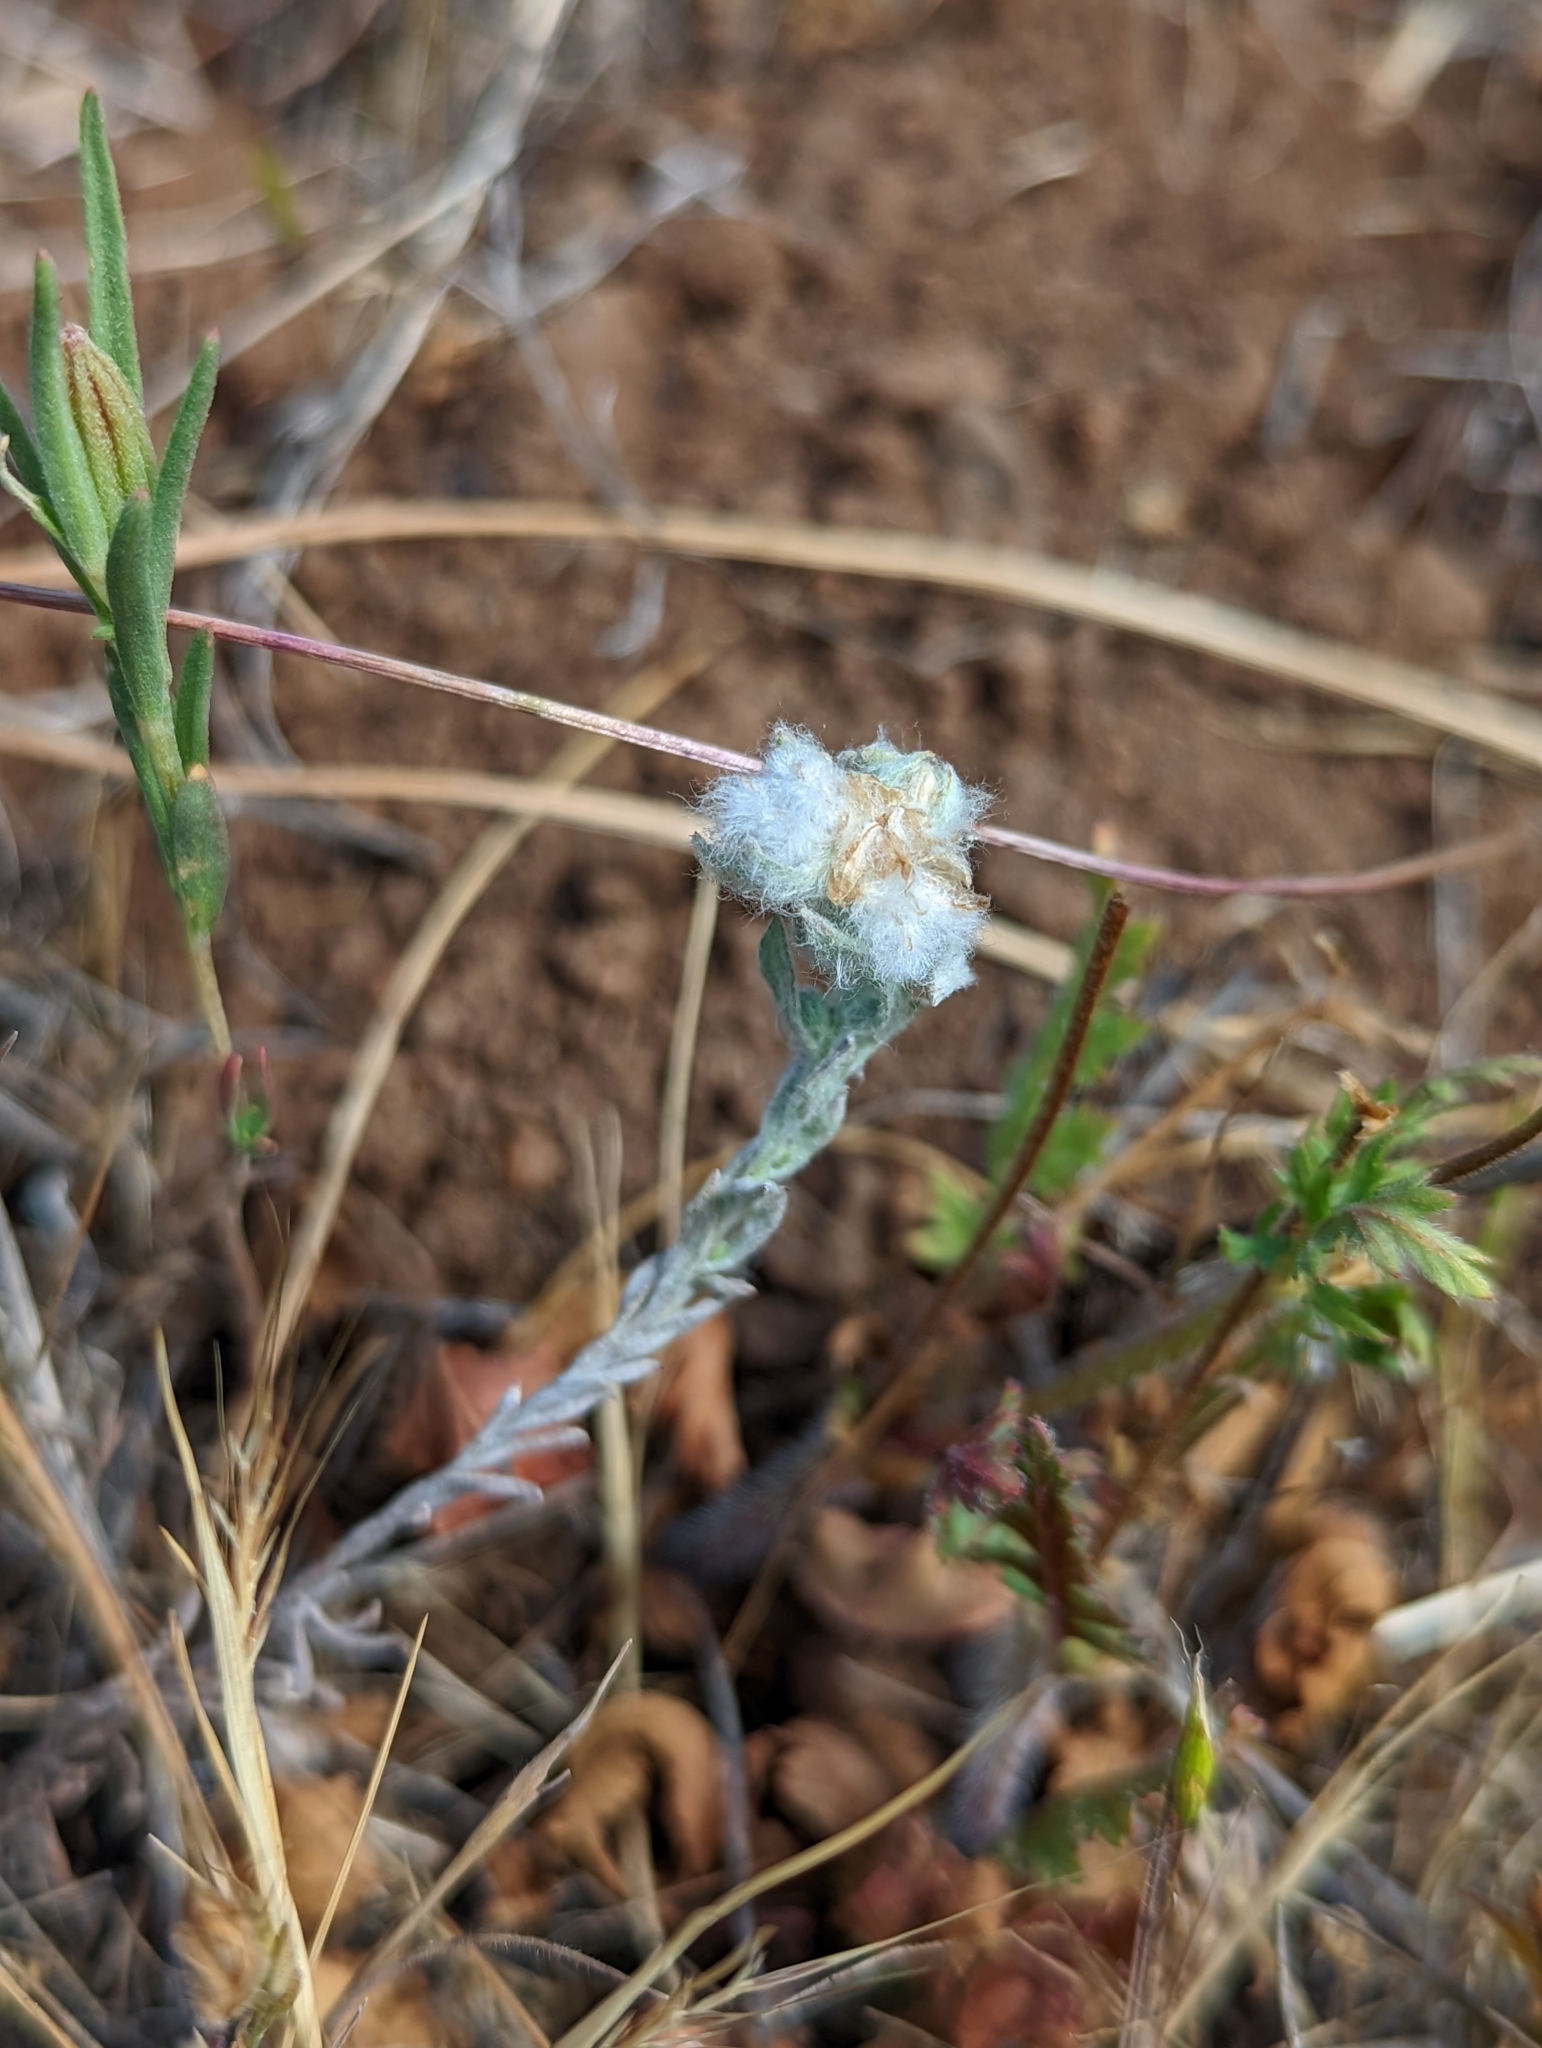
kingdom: Plantae
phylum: Tracheophyta
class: Magnoliopsida
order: Asterales
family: Asteraceae
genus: Bombycilaena
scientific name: Bombycilaena californica
